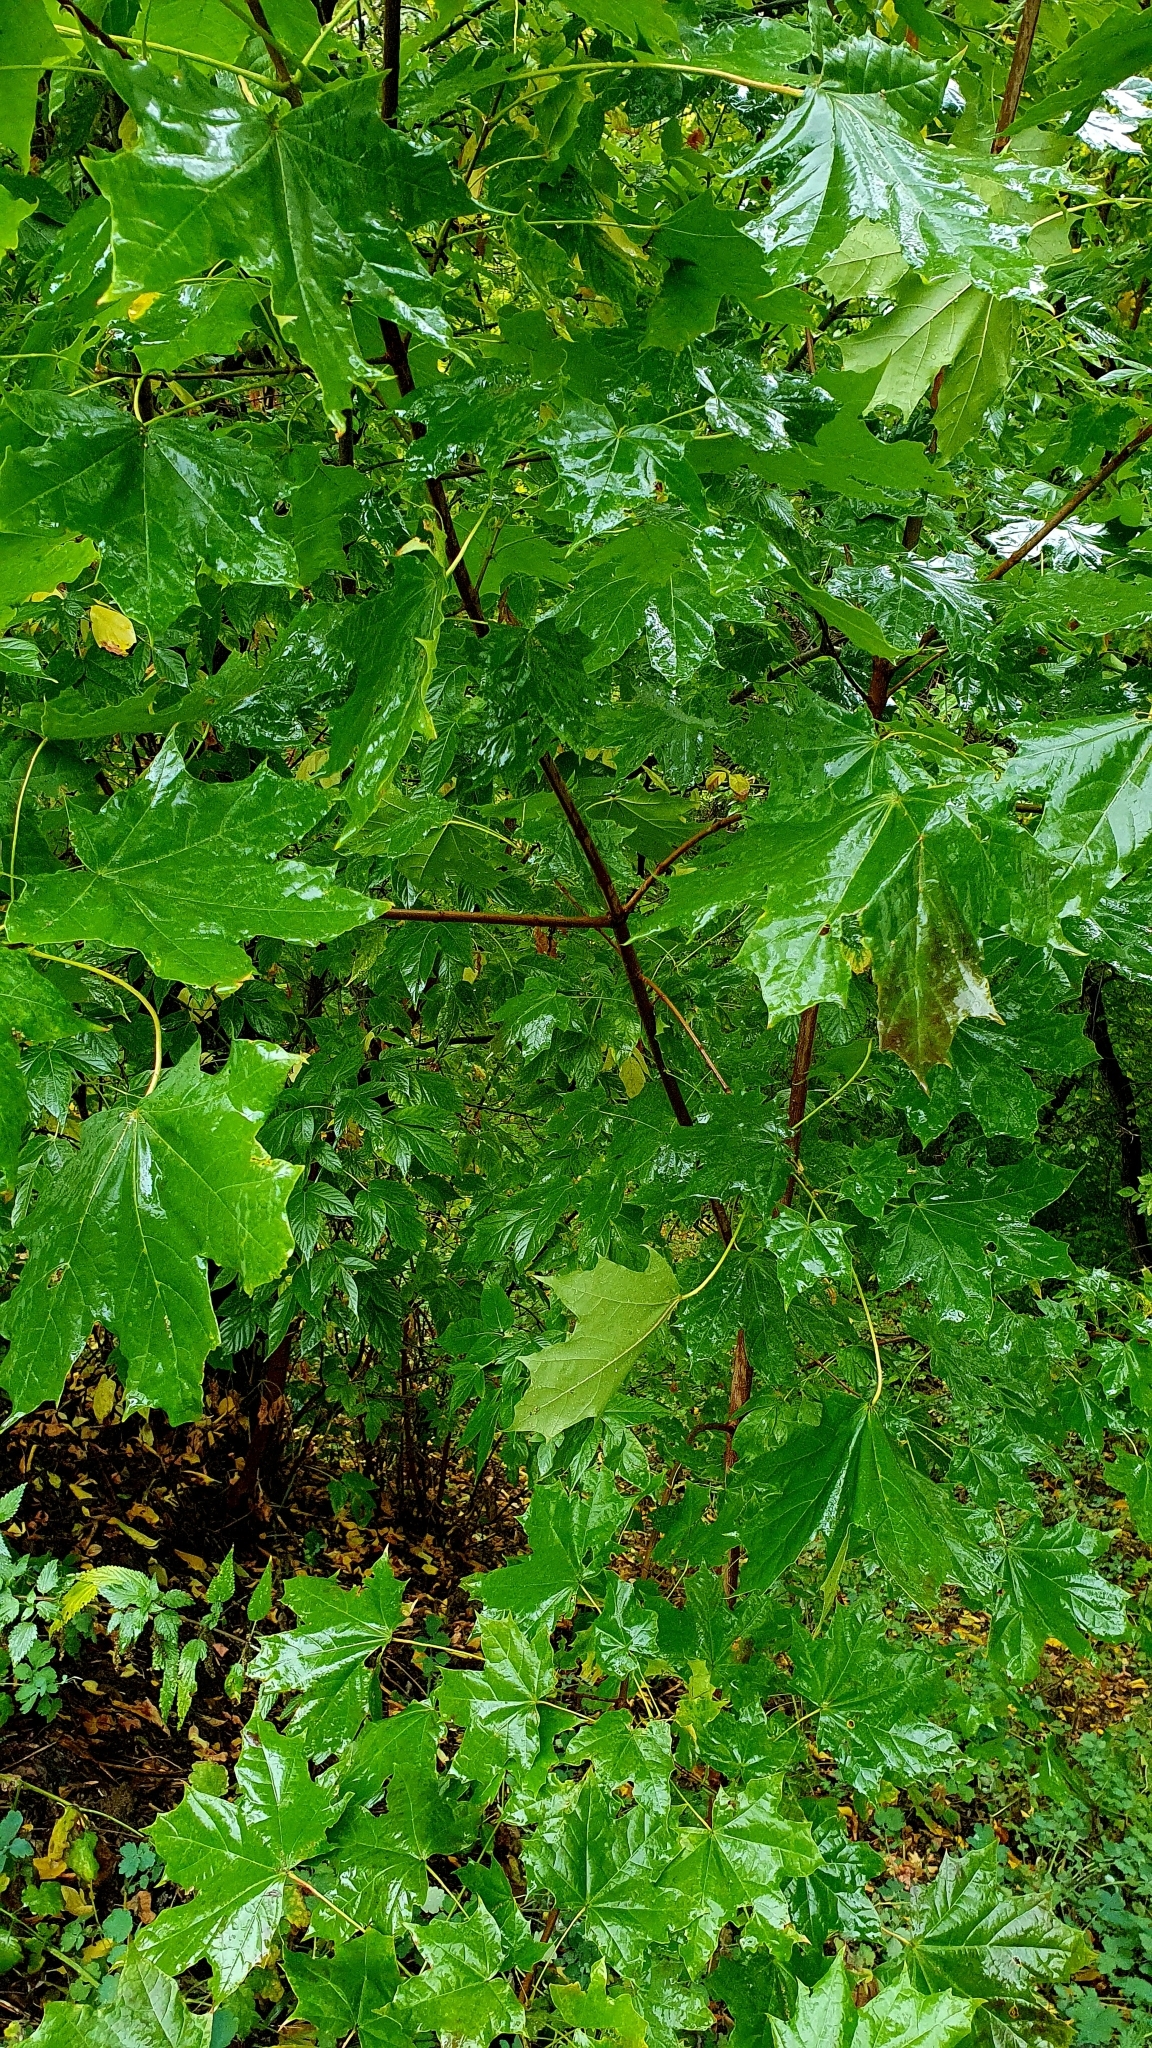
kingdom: Plantae
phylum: Tracheophyta
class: Magnoliopsida
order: Sapindales
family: Sapindaceae
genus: Acer
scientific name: Acer platanoides
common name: Norway maple
